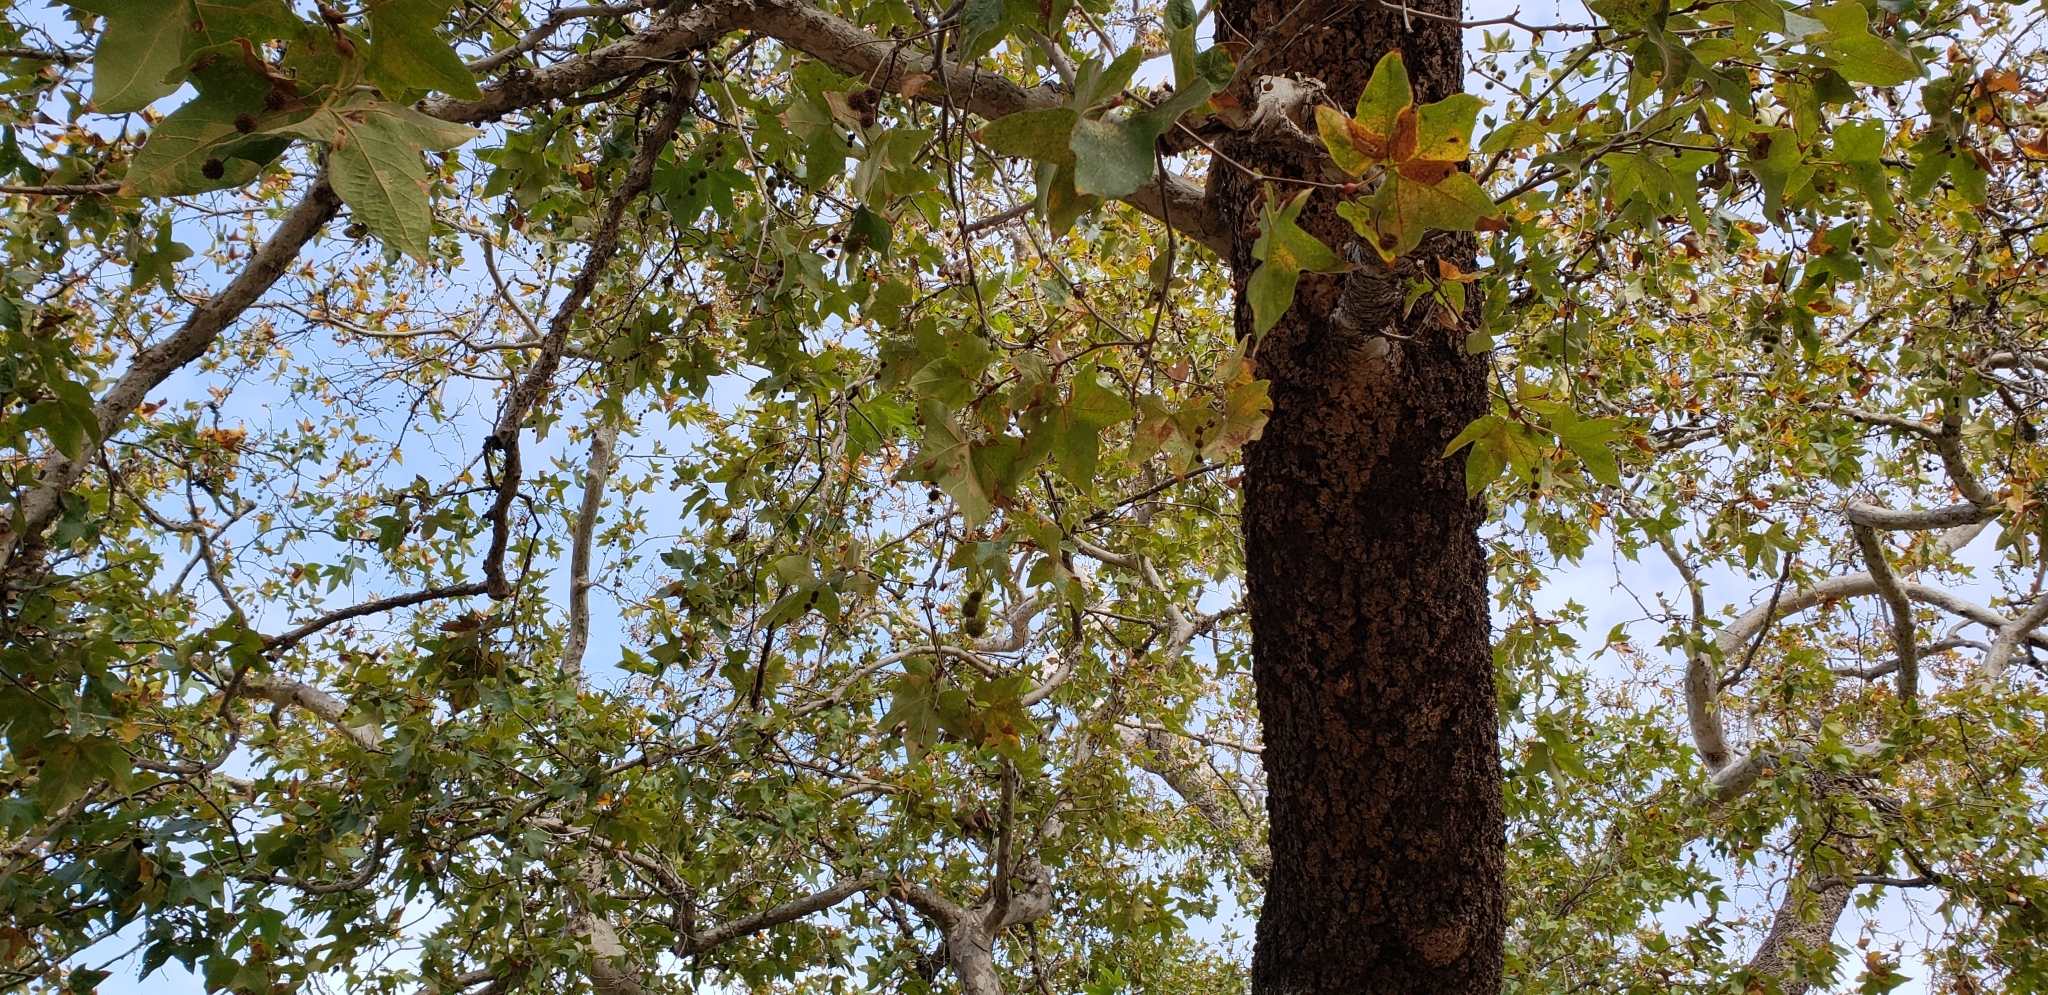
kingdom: Plantae
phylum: Tracheophyta
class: Magnoliopsida
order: Proteales
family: Platanaceae
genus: Platanus
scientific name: Platanus racemosa
